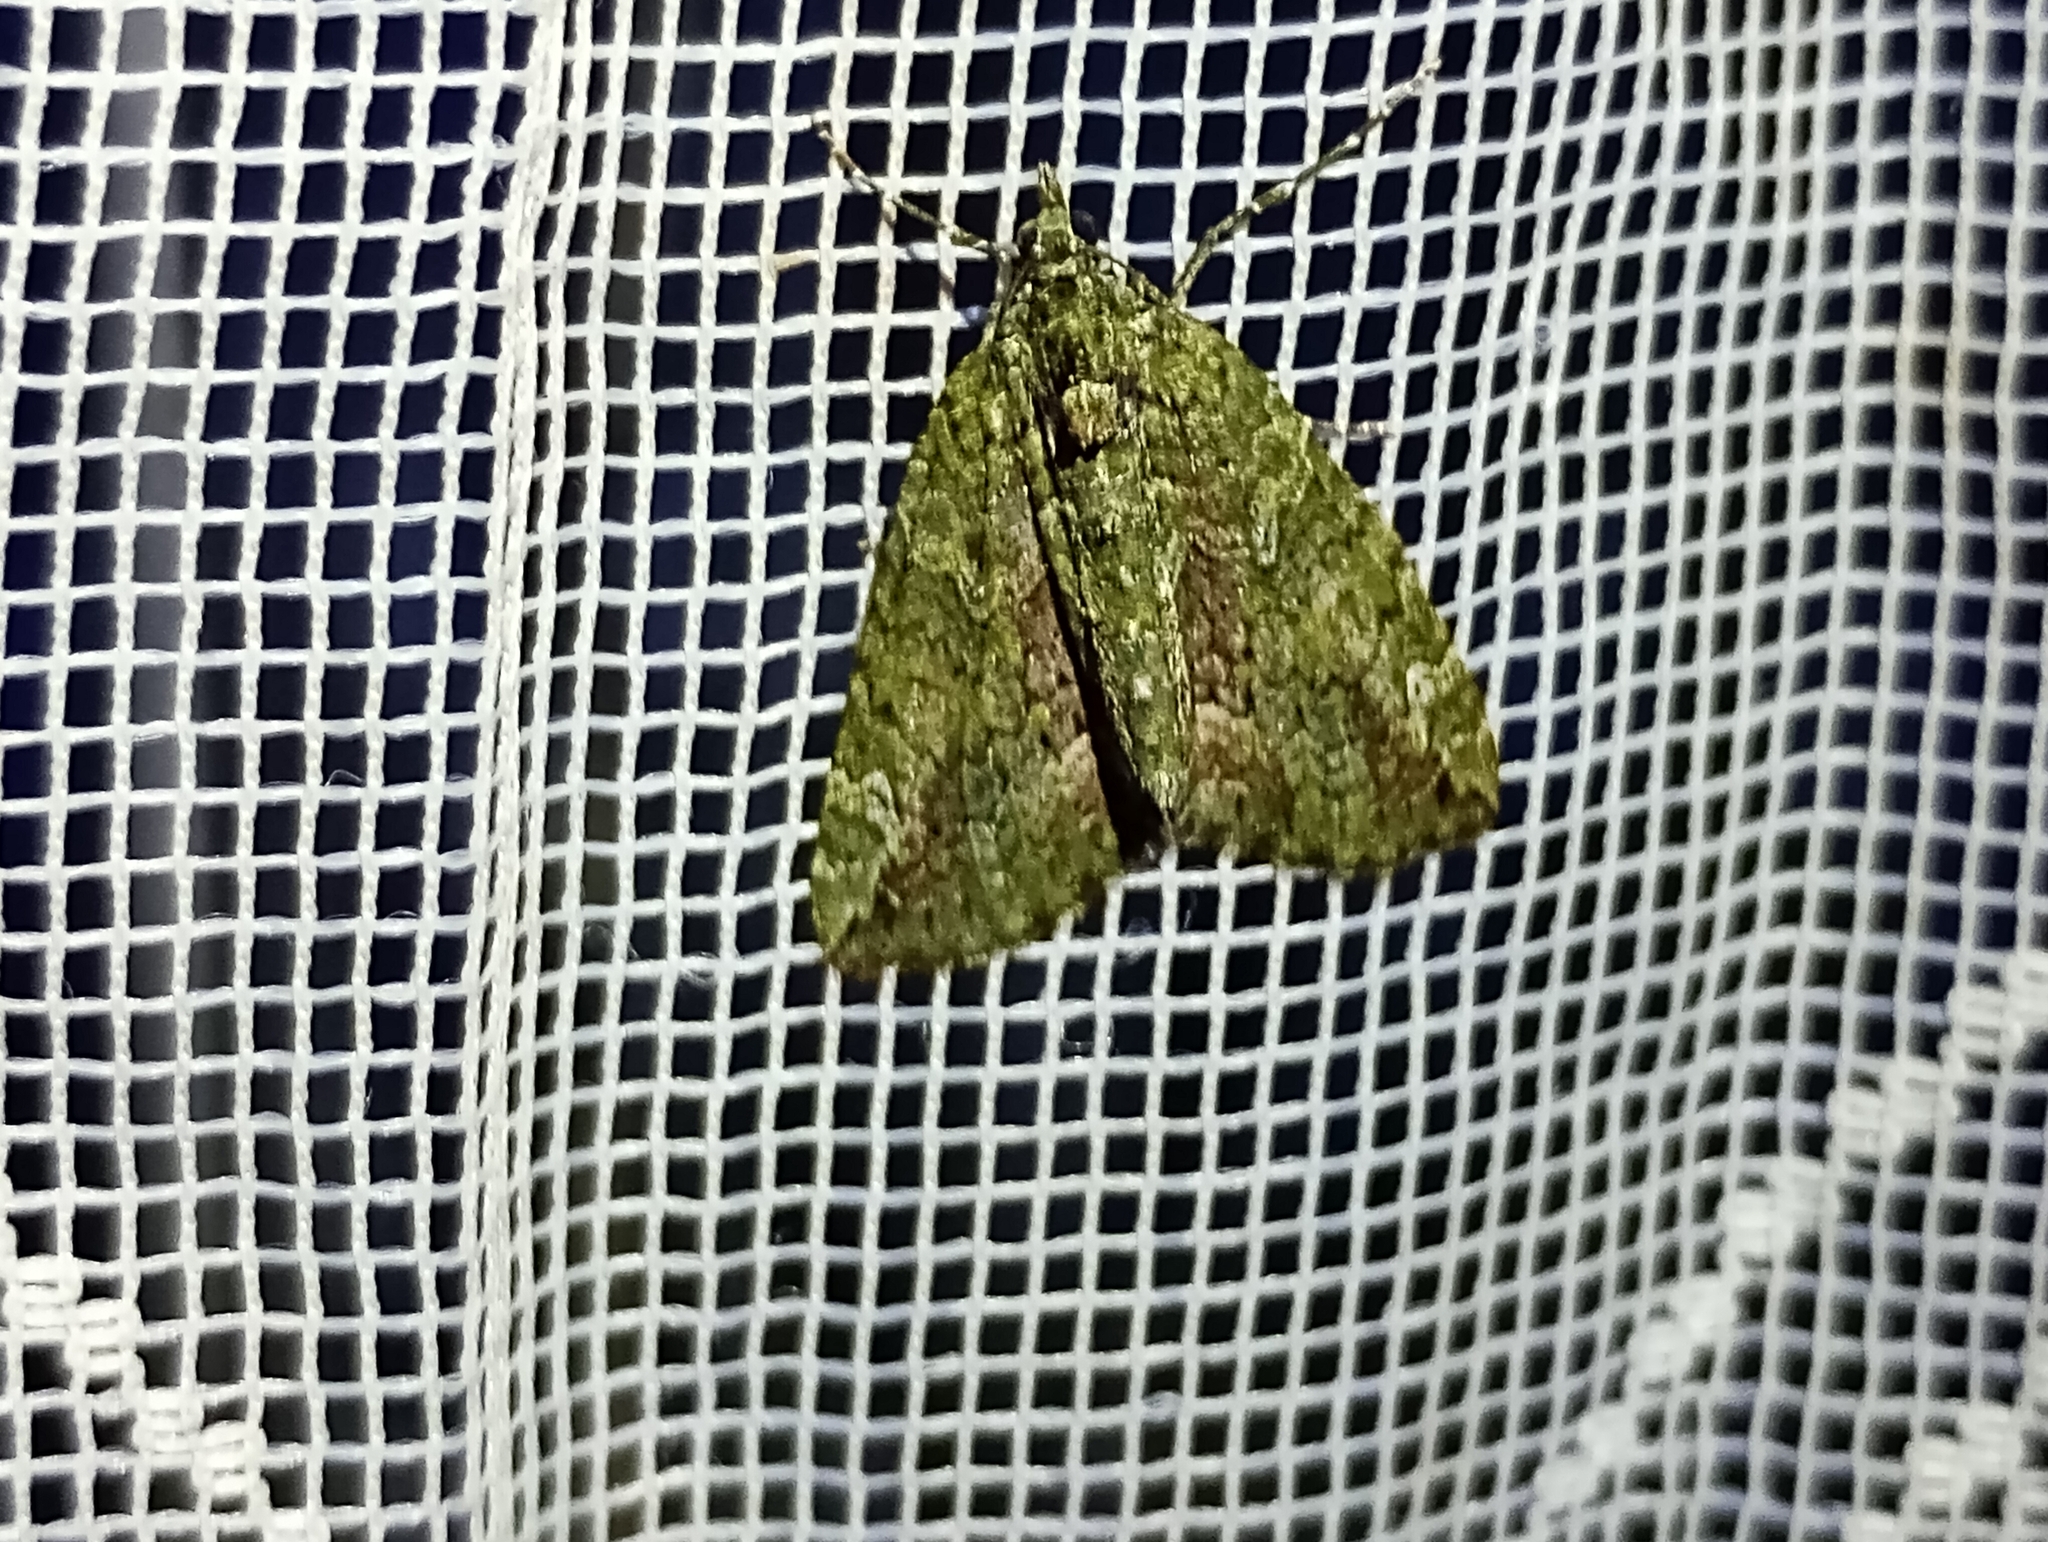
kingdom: Animalia
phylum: Arthropoda
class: Insecta
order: Lepidoptera
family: Geometridae
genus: Chloroclysta
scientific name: Chloroclysta siterata
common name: Red-green carpet
